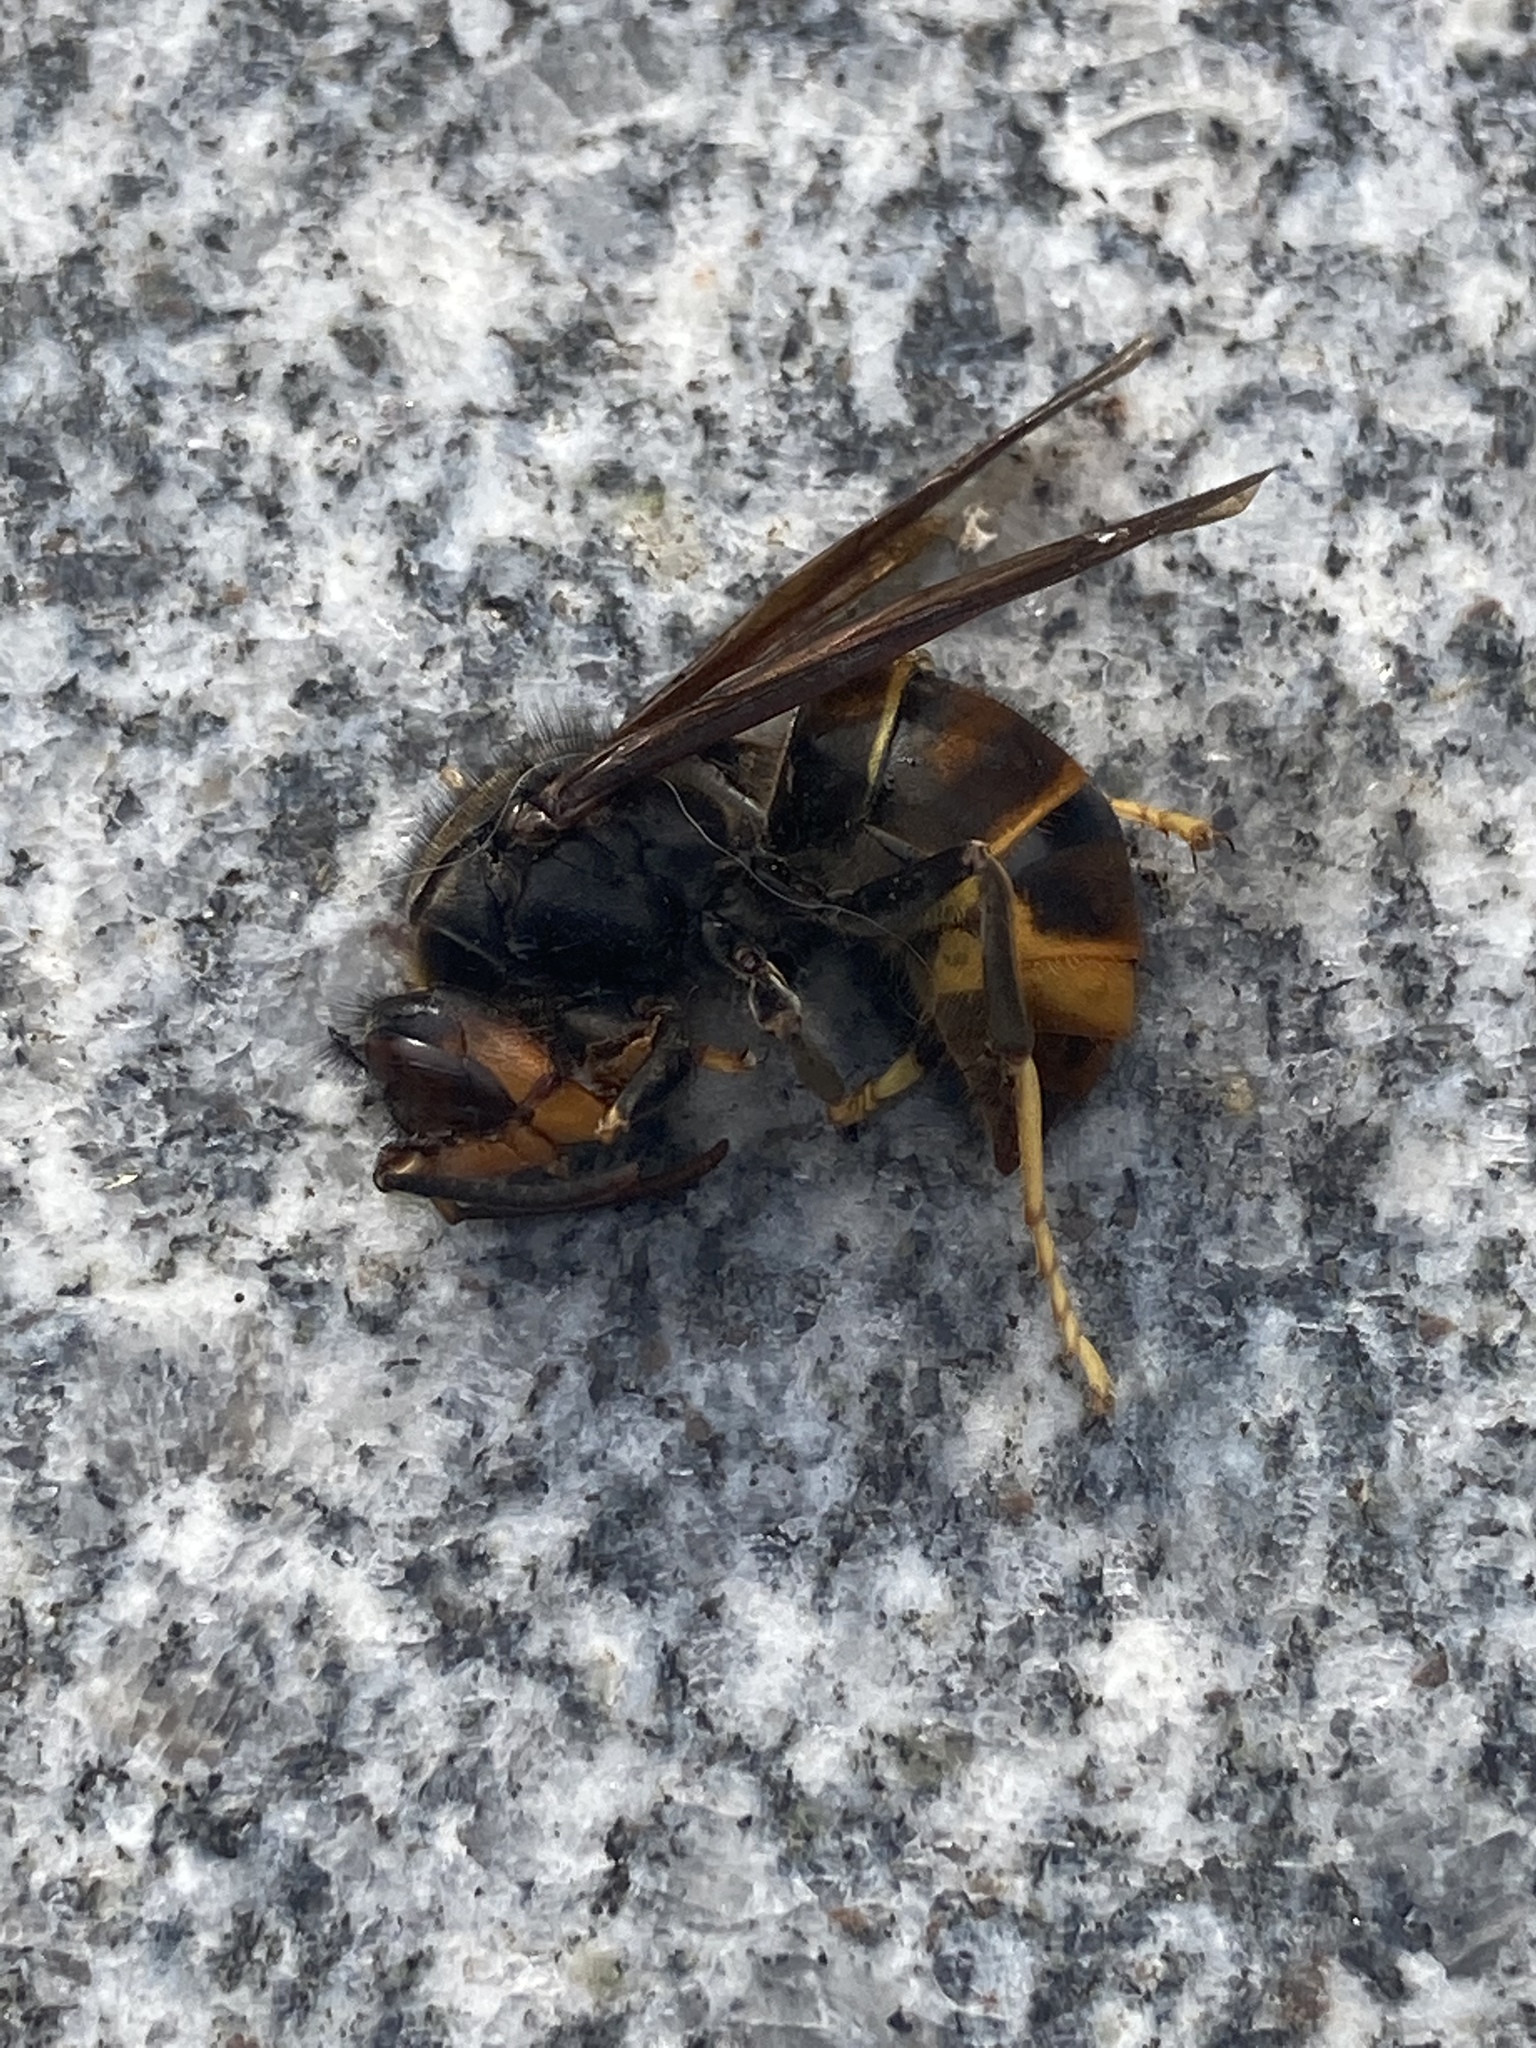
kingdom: Animalia
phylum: Arthropoda
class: Insecta
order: Hymenoptera
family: Vespidae
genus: Vespa
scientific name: Vespa velutina
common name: Asian hornet
